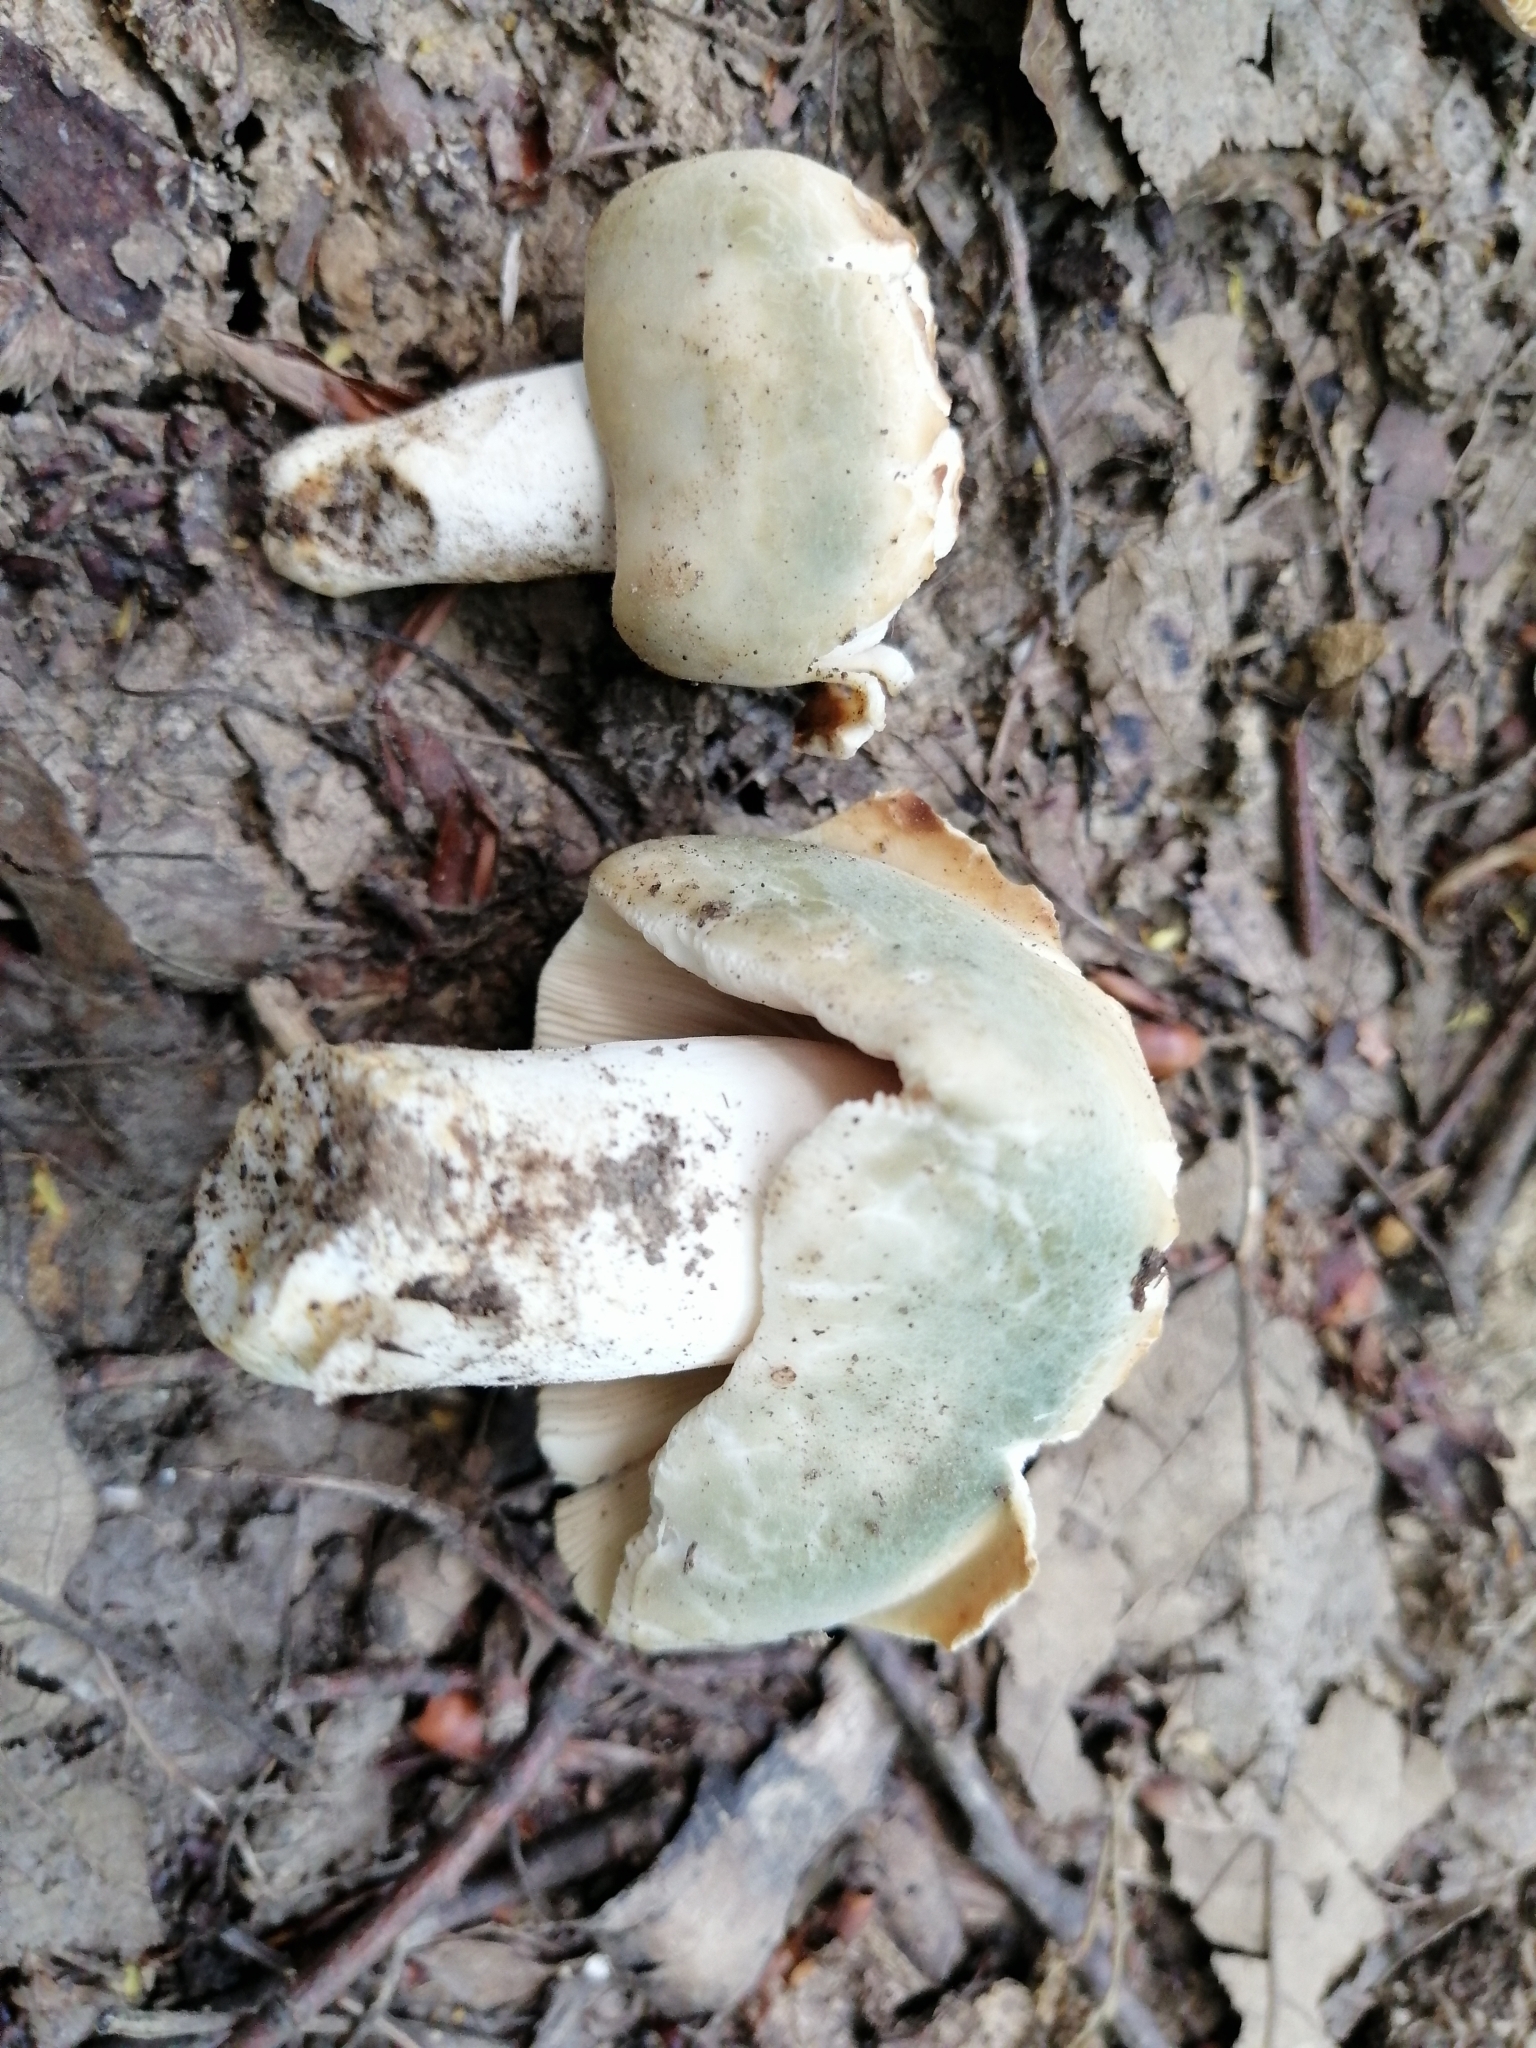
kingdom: Fungi
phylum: Basidiomycota
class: Agaricomycetes
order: Russulales
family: Russulaceae
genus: Russula
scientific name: Russula virescens
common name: Greencracked brittlegill
